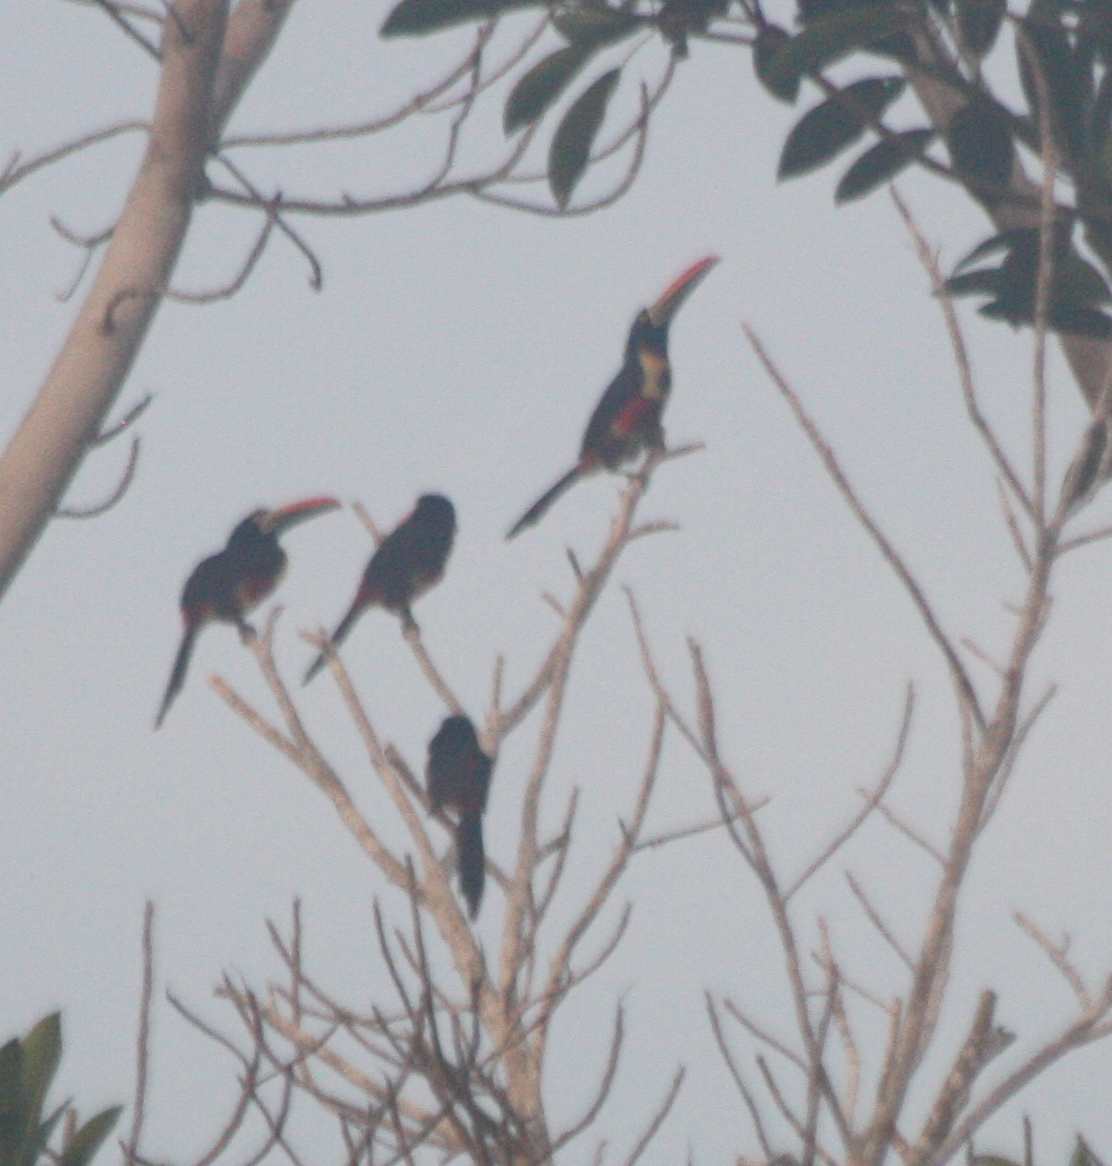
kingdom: Animalia
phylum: Chordata
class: Aves
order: Piciformes
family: Ramphastidae
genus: Pteroglossus
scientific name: Pteroglossus frantzii
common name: Fiery-billed aracari
